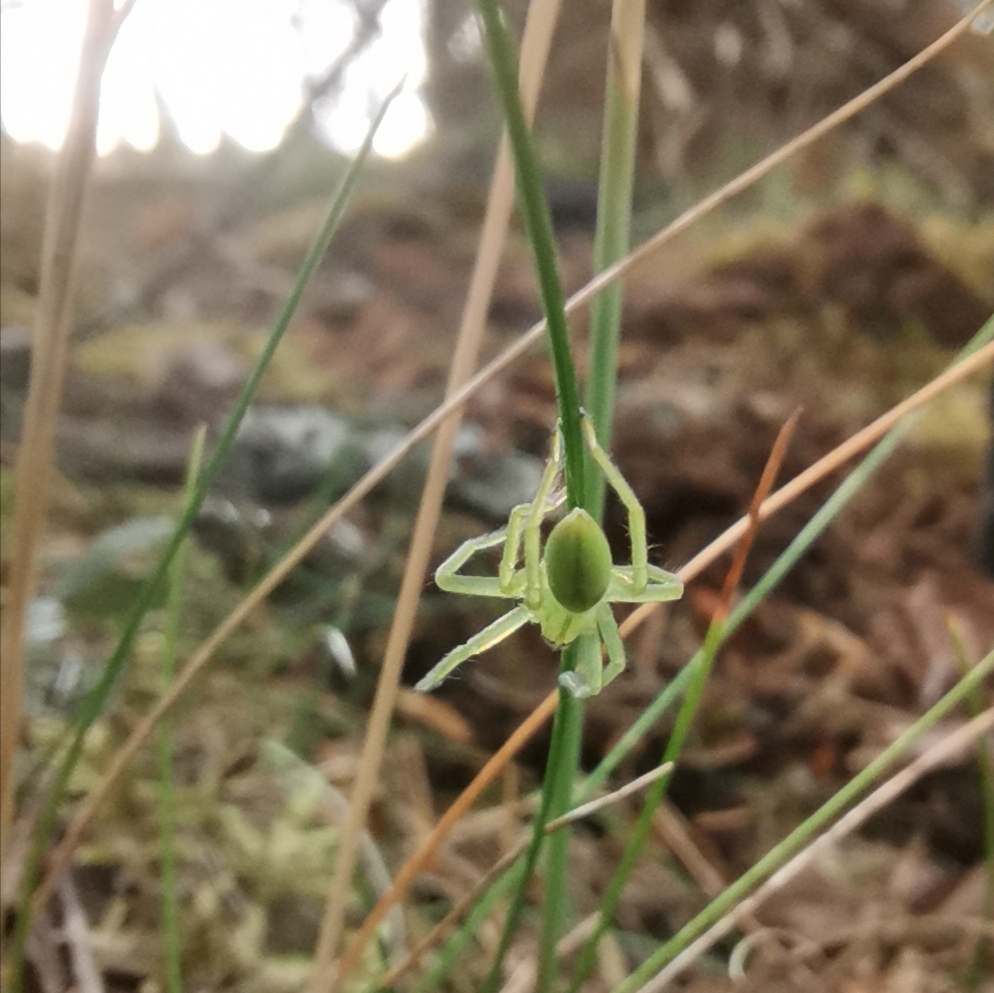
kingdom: Animalia
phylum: Arthropoda
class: Arachnida
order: Araneae
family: Sparassidae
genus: Micrommata
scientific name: Micrommata virescens
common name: Green spider
